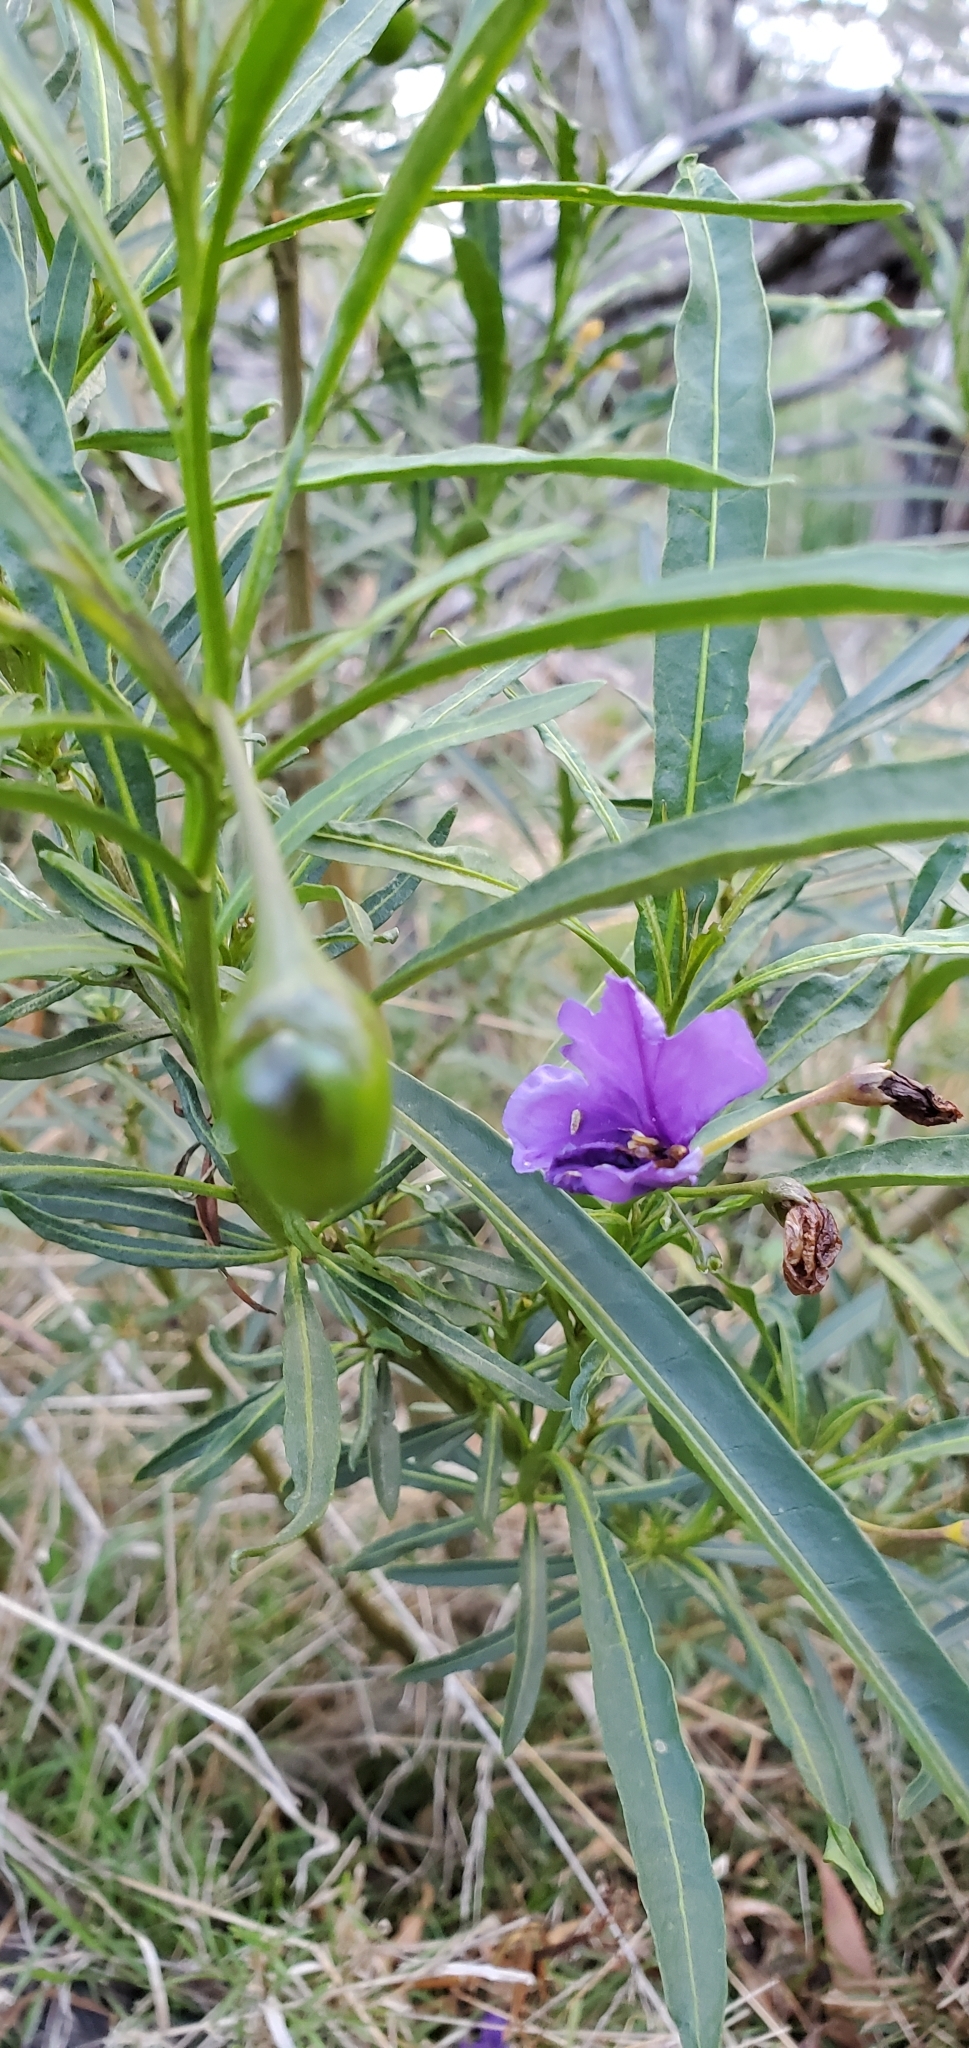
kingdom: Plantae
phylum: Tracheophyta
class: Magnoliopsida
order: Solanales
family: Solanaceae
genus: Solanum
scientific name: Solanum linearifolium
